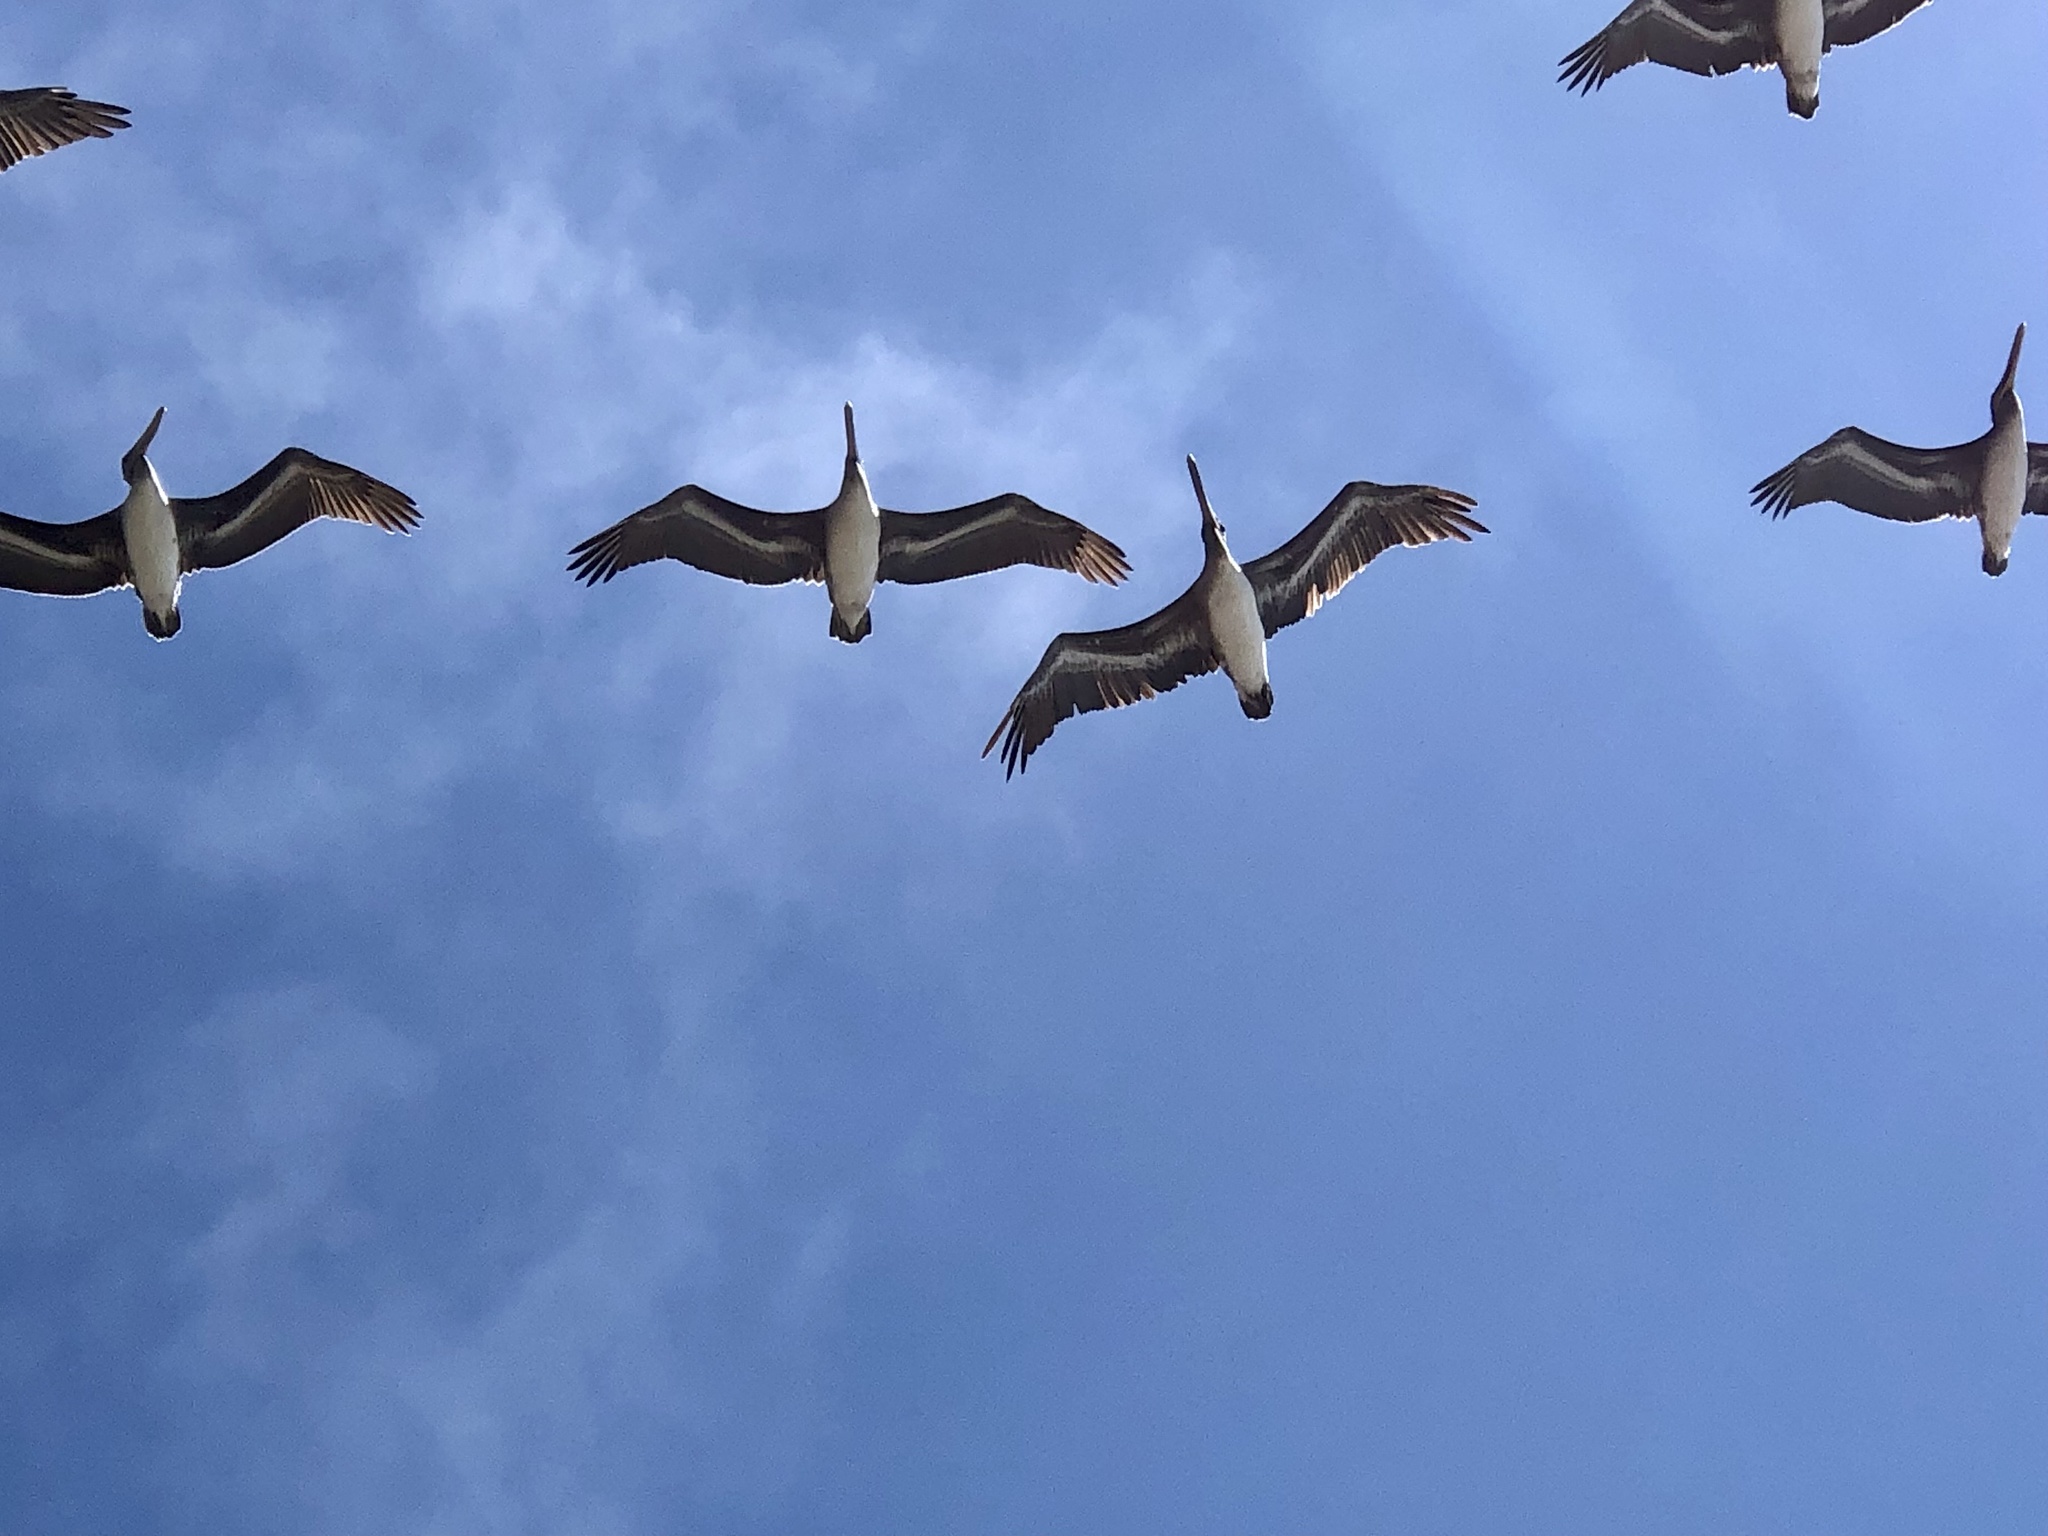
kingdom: Animalia
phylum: Chordata
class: Aves
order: Pelecaniformes
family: Pelecanidae
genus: Pelecanus
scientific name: Pelecanus occidentalis
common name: Brown pelican
